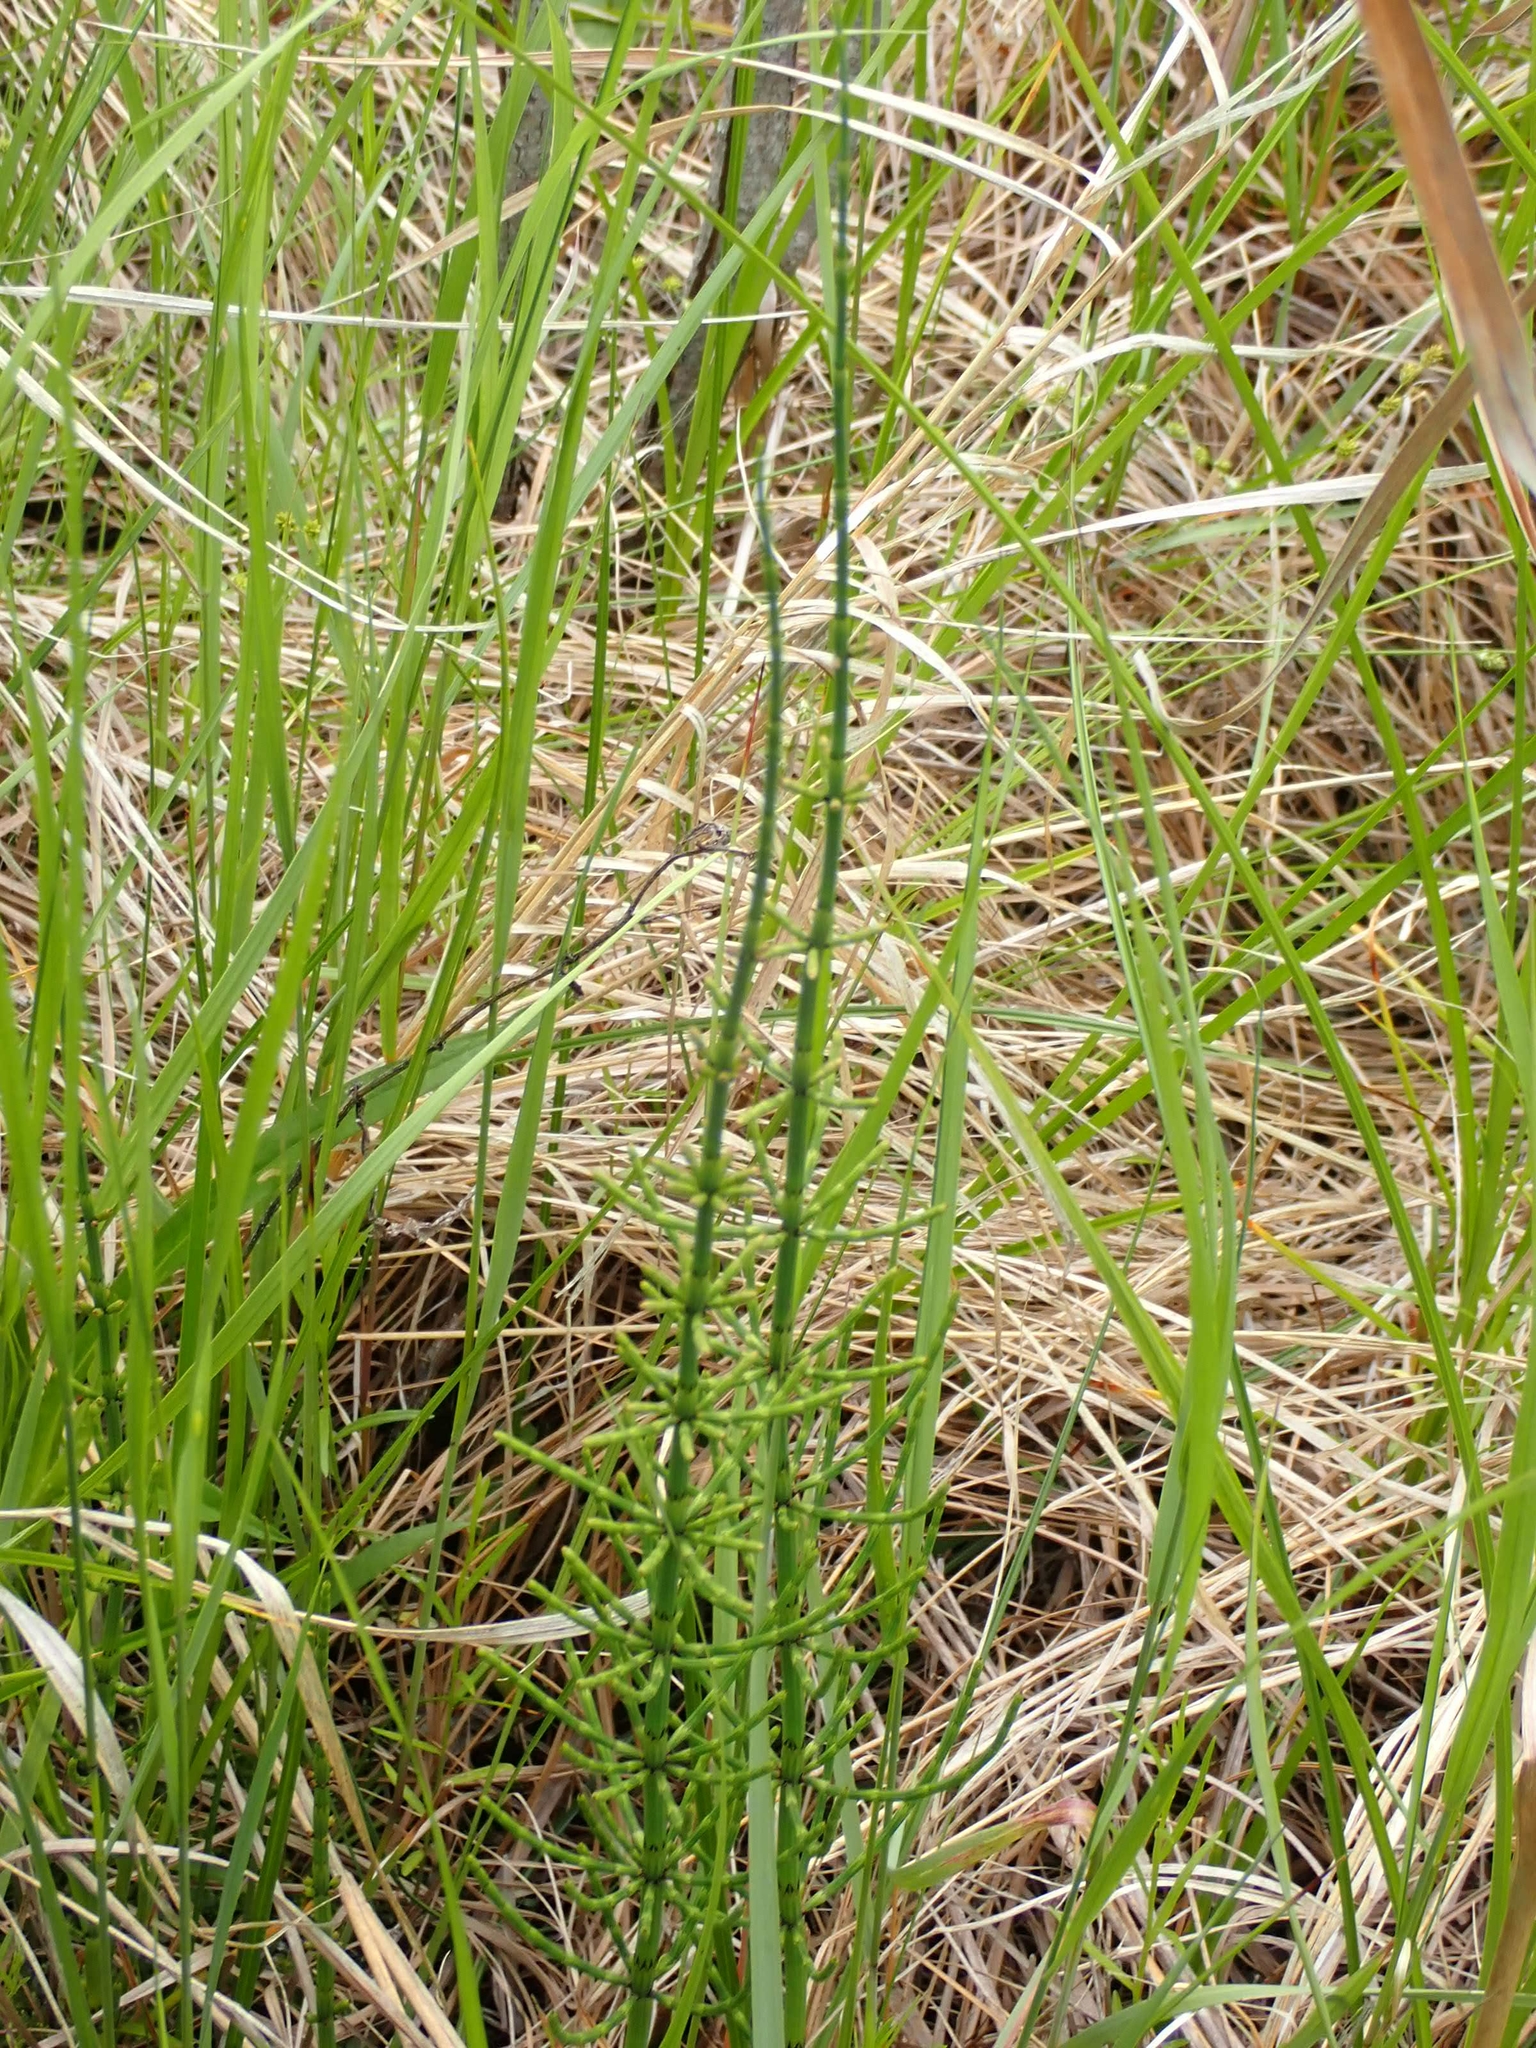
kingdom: Plantae
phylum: Tracheophyta
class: Polypodiopsida
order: Equisetales
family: Equisetaceae
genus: Equisetum
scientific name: Equisetum fluviatile
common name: Water horsetail
